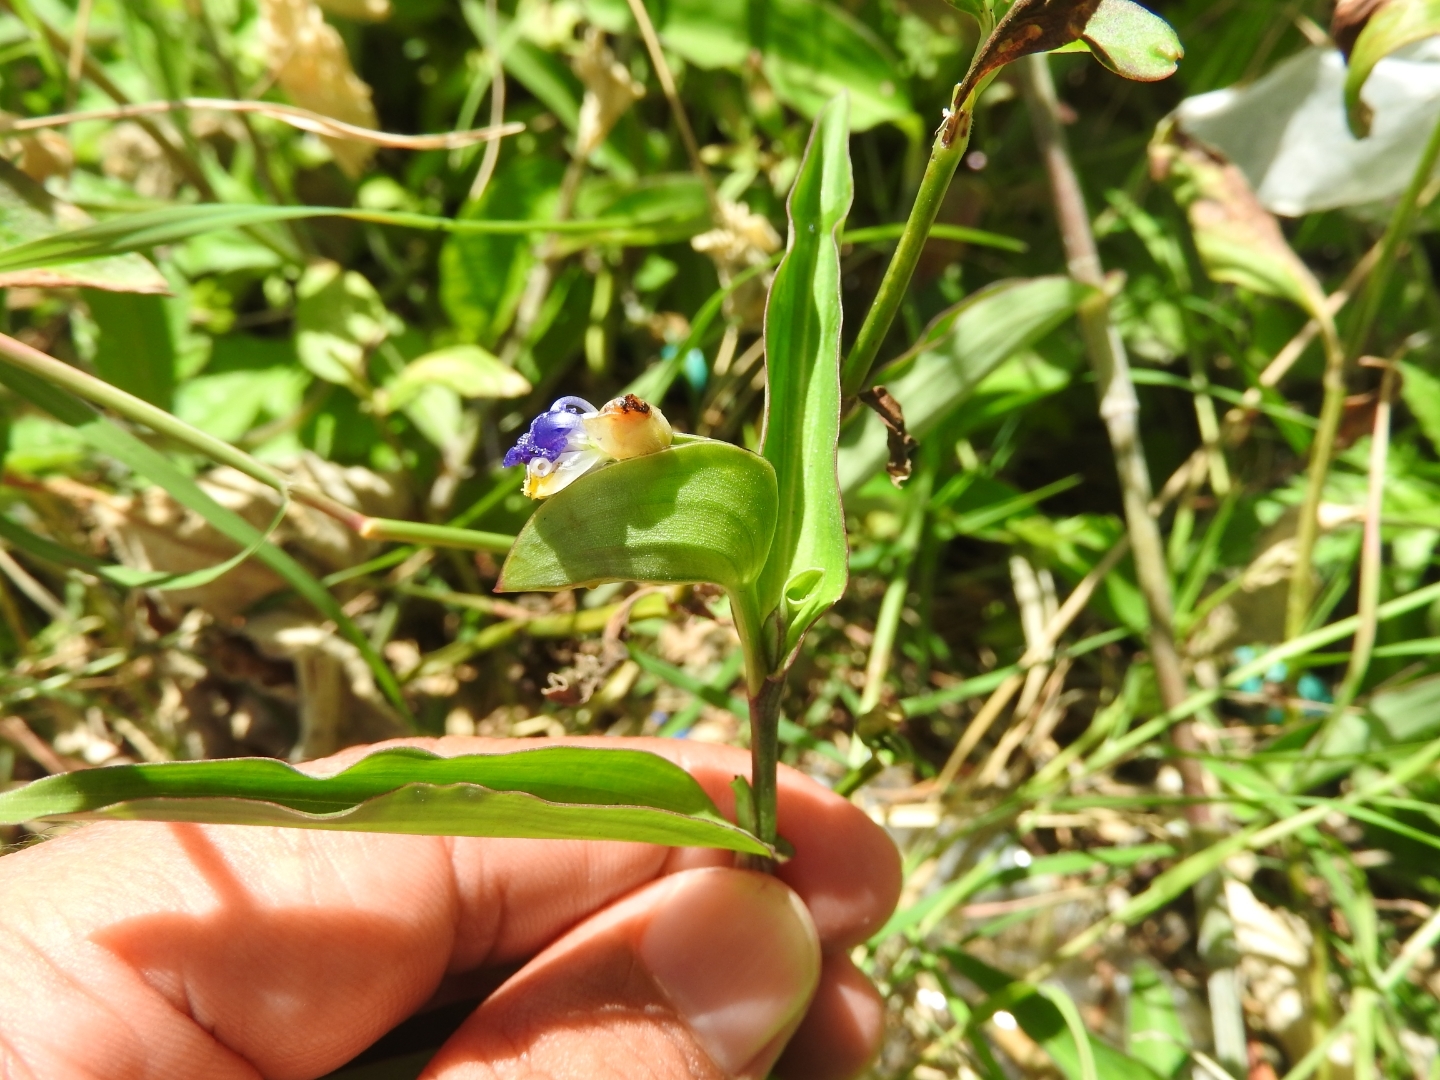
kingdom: Plantae
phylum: Tracheophyta
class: Liliopsida
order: Commelinales
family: Commelinaceae
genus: Commelina
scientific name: Commelina erecta
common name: Blousel blommetjie
